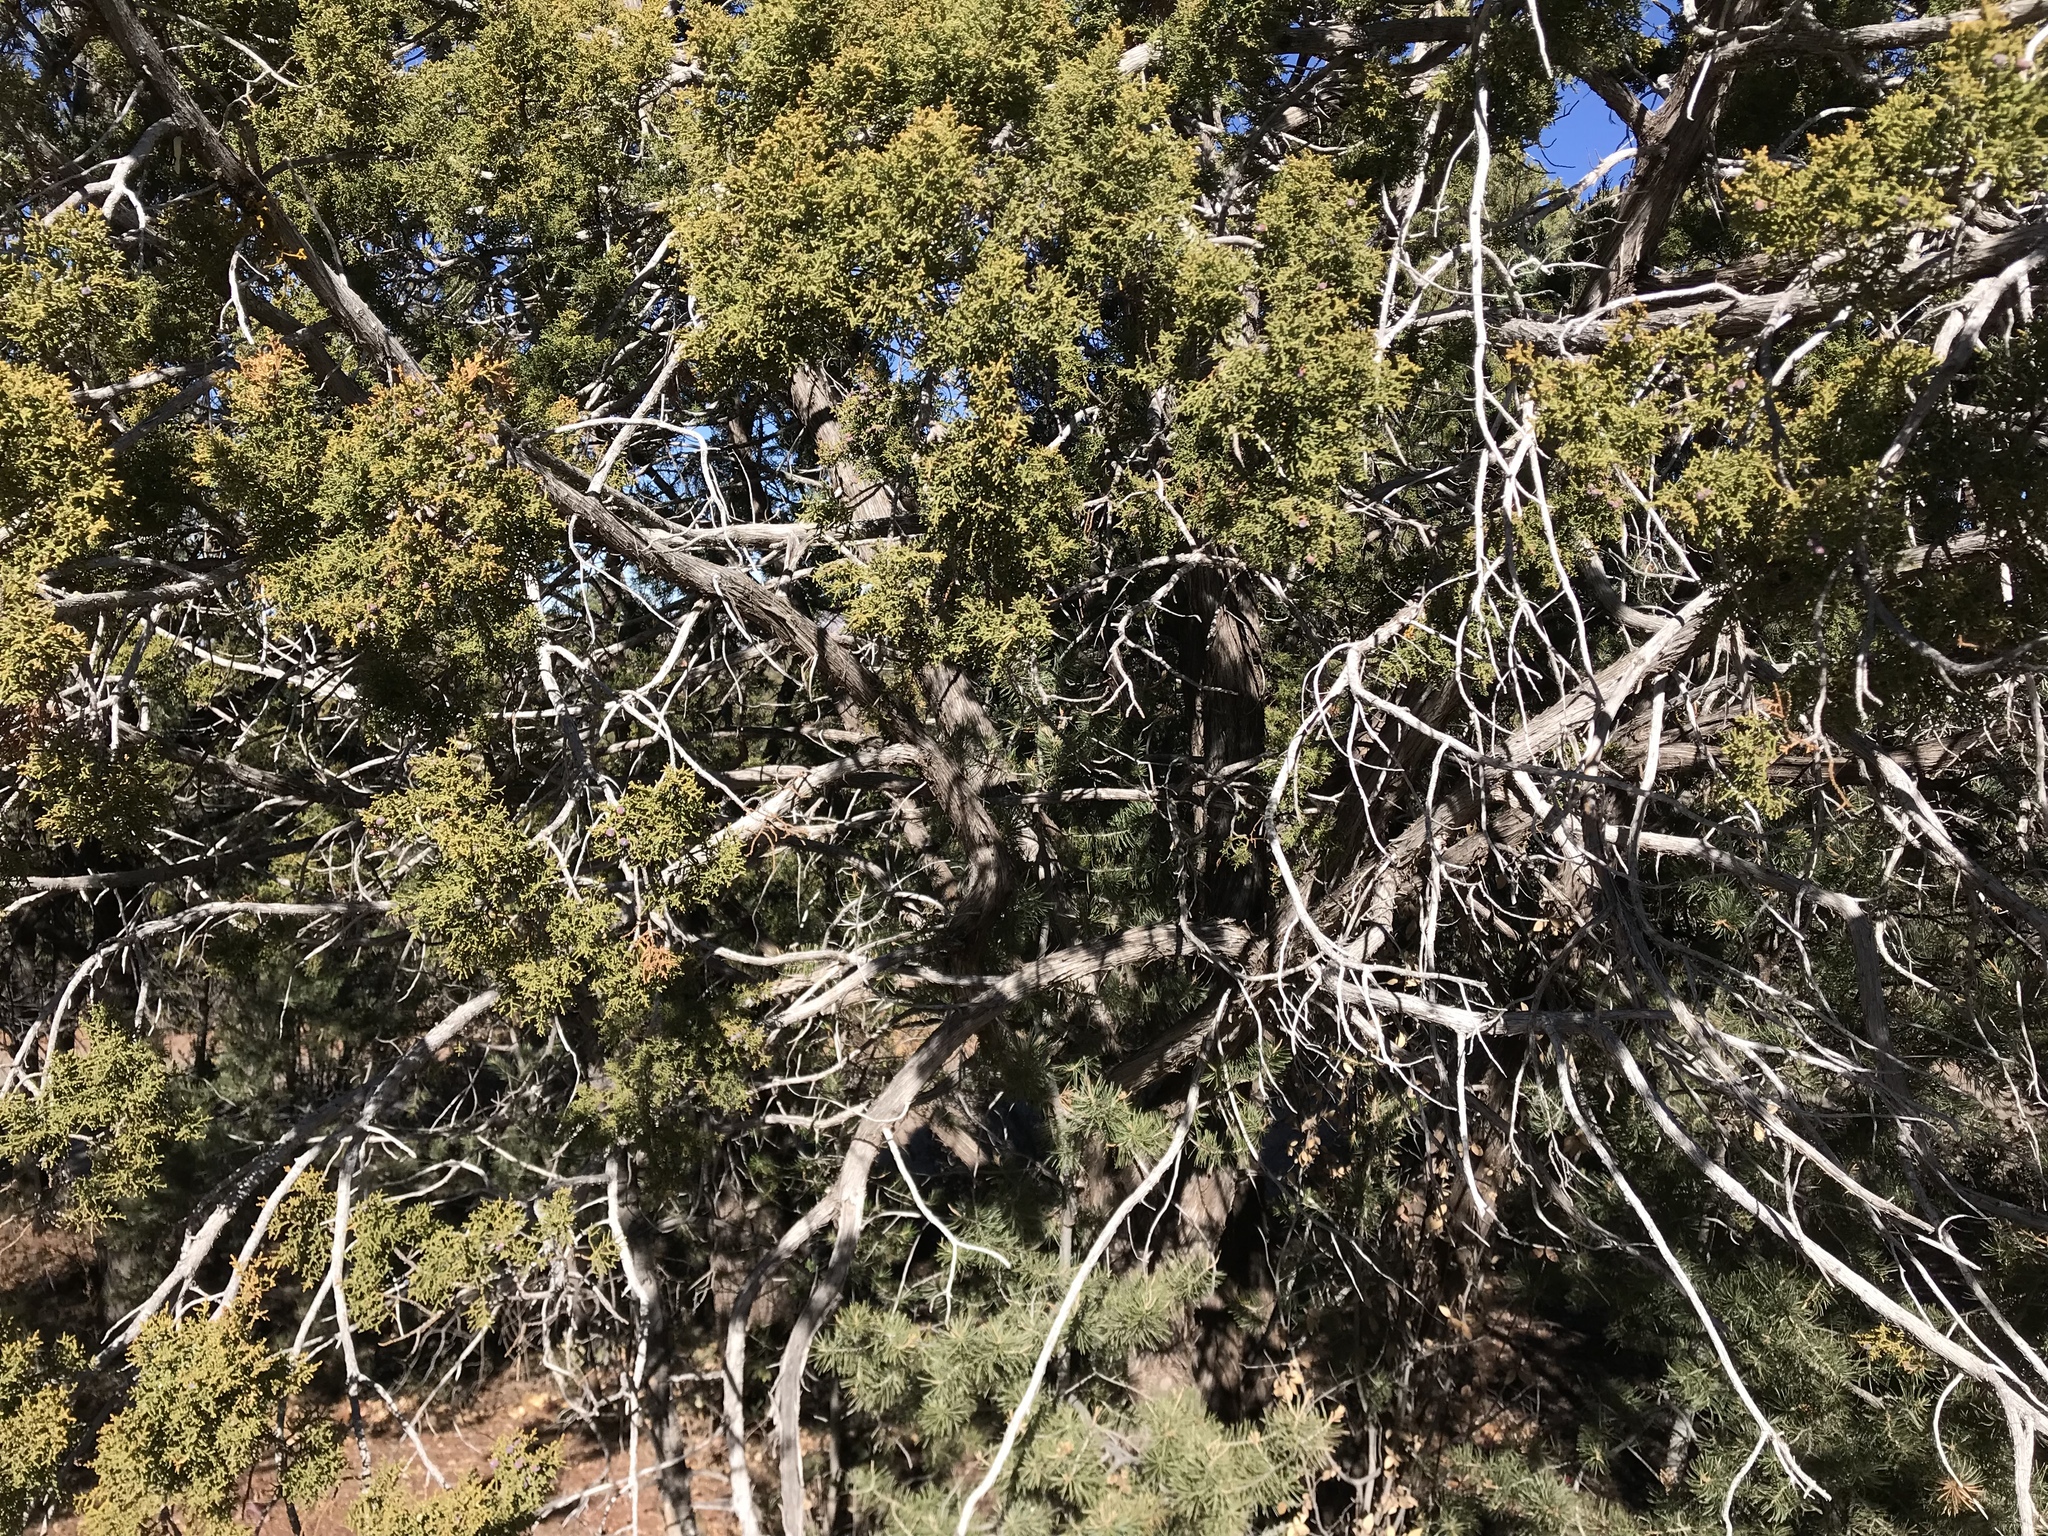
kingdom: Plantae
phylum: Tracheophyta
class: Pinopsida
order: Pinales
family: Cupressaceae
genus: Juniperus
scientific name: Juniperus monosperma
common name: One-seed juniper
